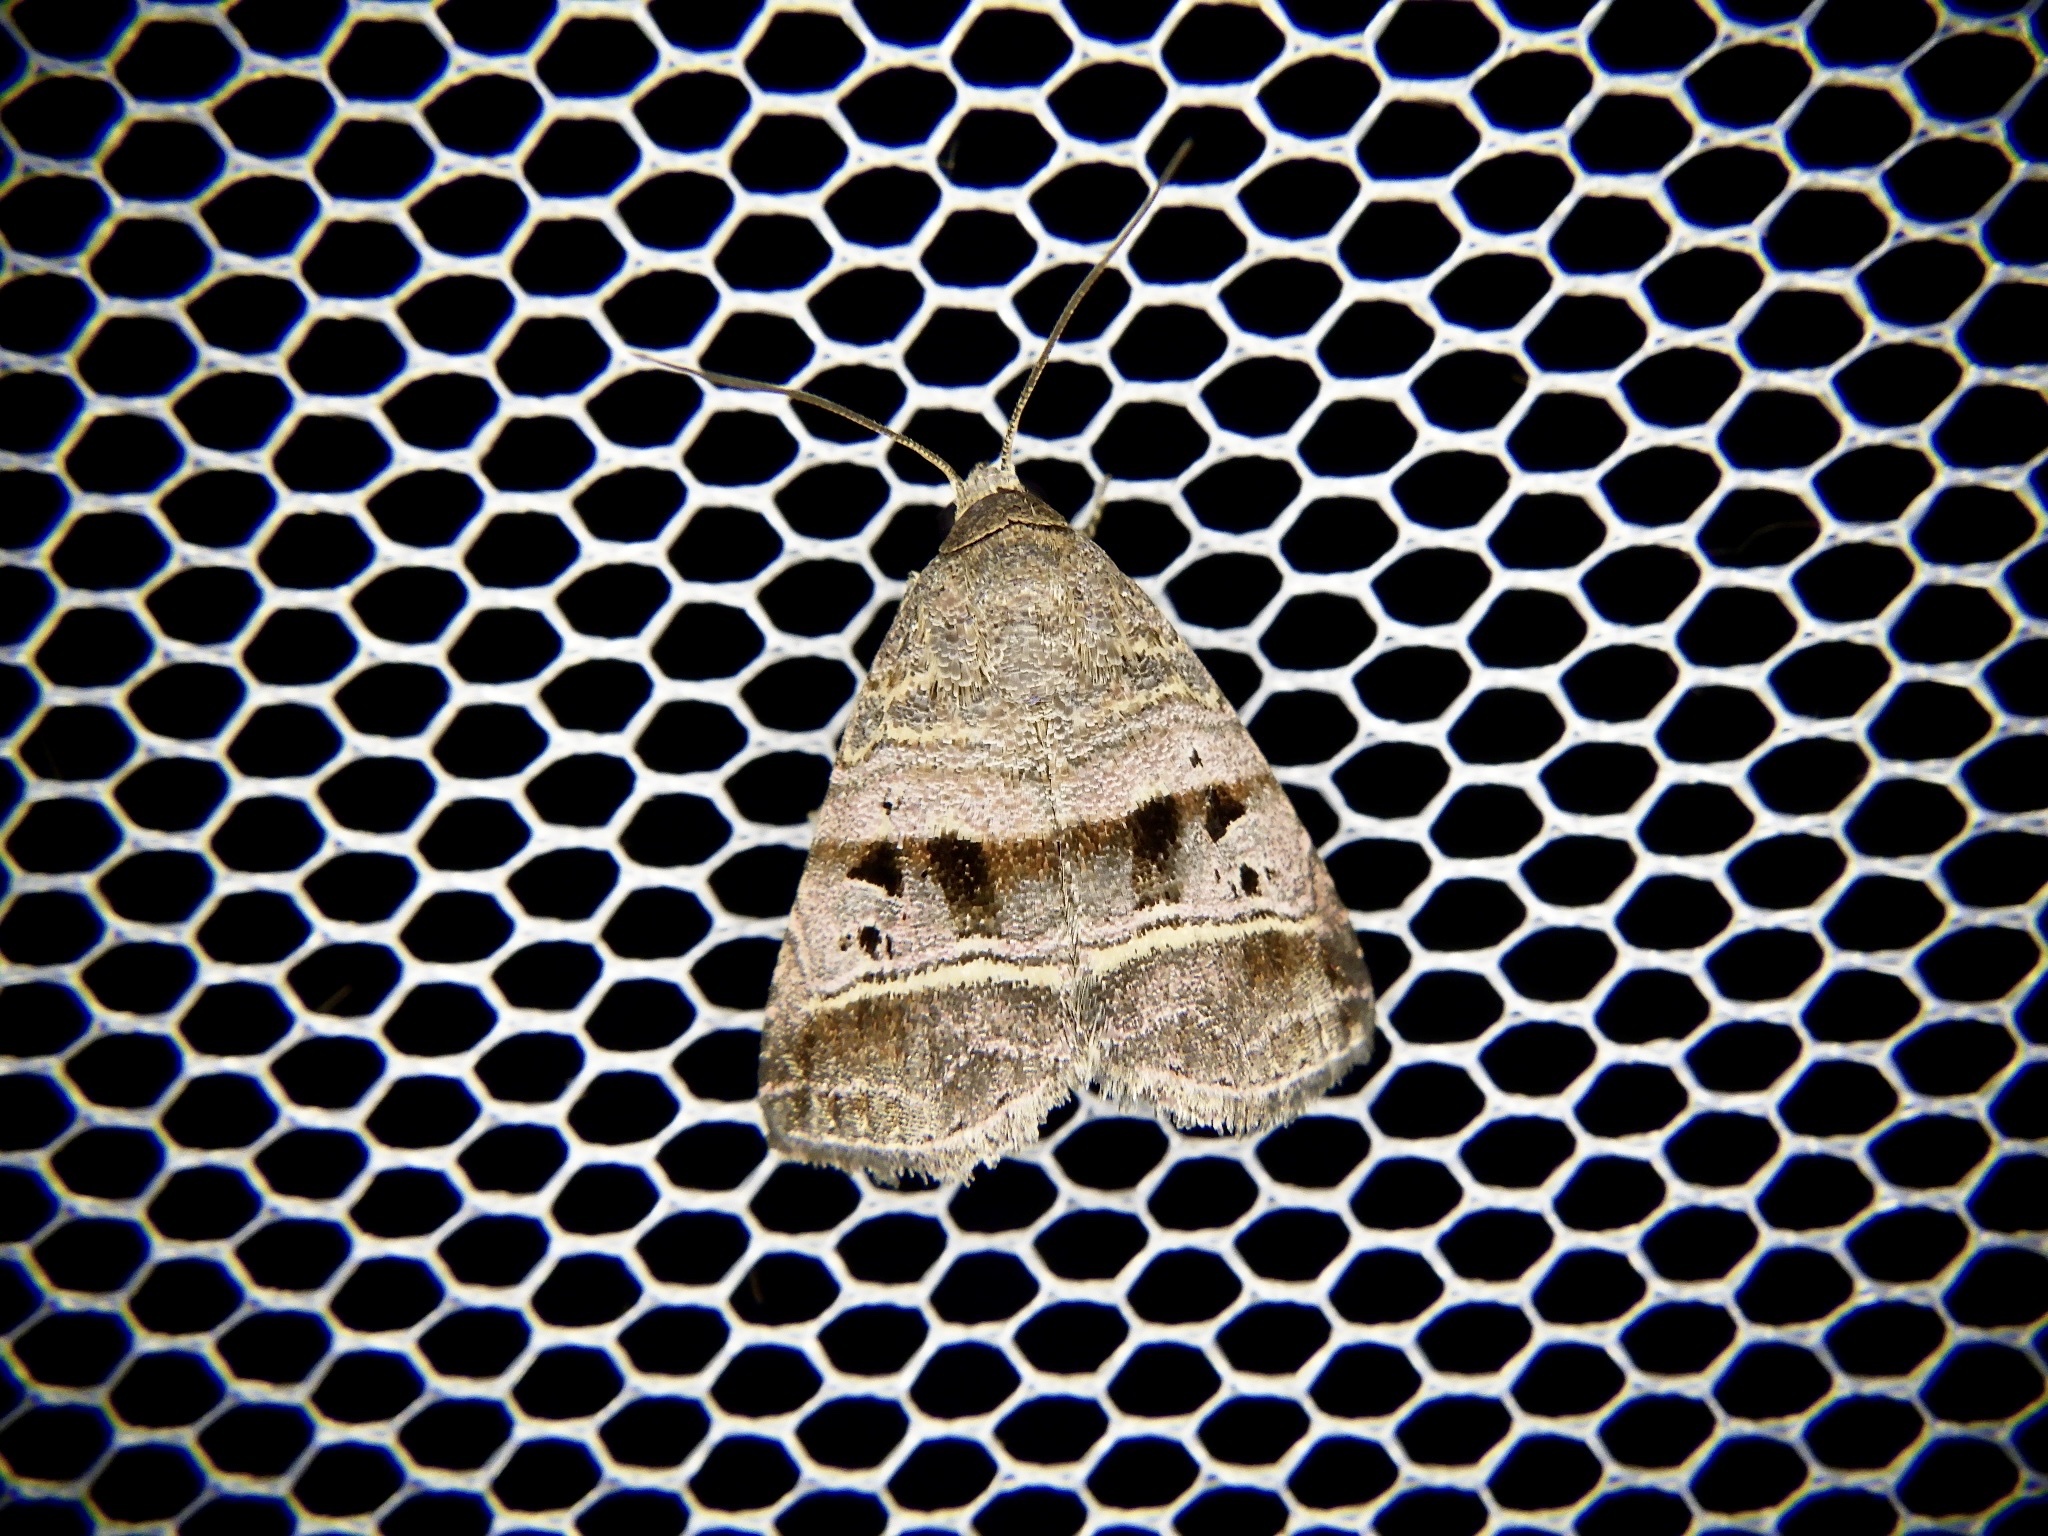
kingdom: Animalia
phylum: Arthropoda
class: Insecta
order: Lepidoptera
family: Noctuidae
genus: Ozarba
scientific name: Ozarba punctigera
